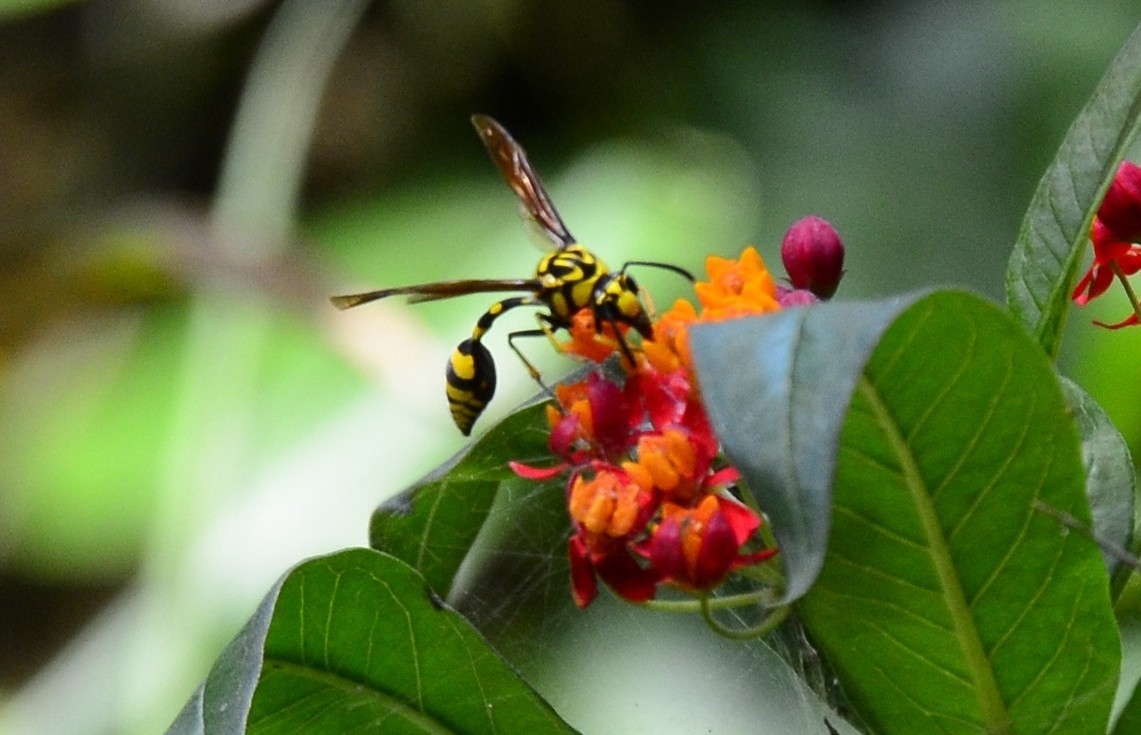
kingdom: Animalia
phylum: Arthropoda
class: Insecta
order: Hymenoptera
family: Eumenidae
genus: Phimenes
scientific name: Phimenes flavopictus
